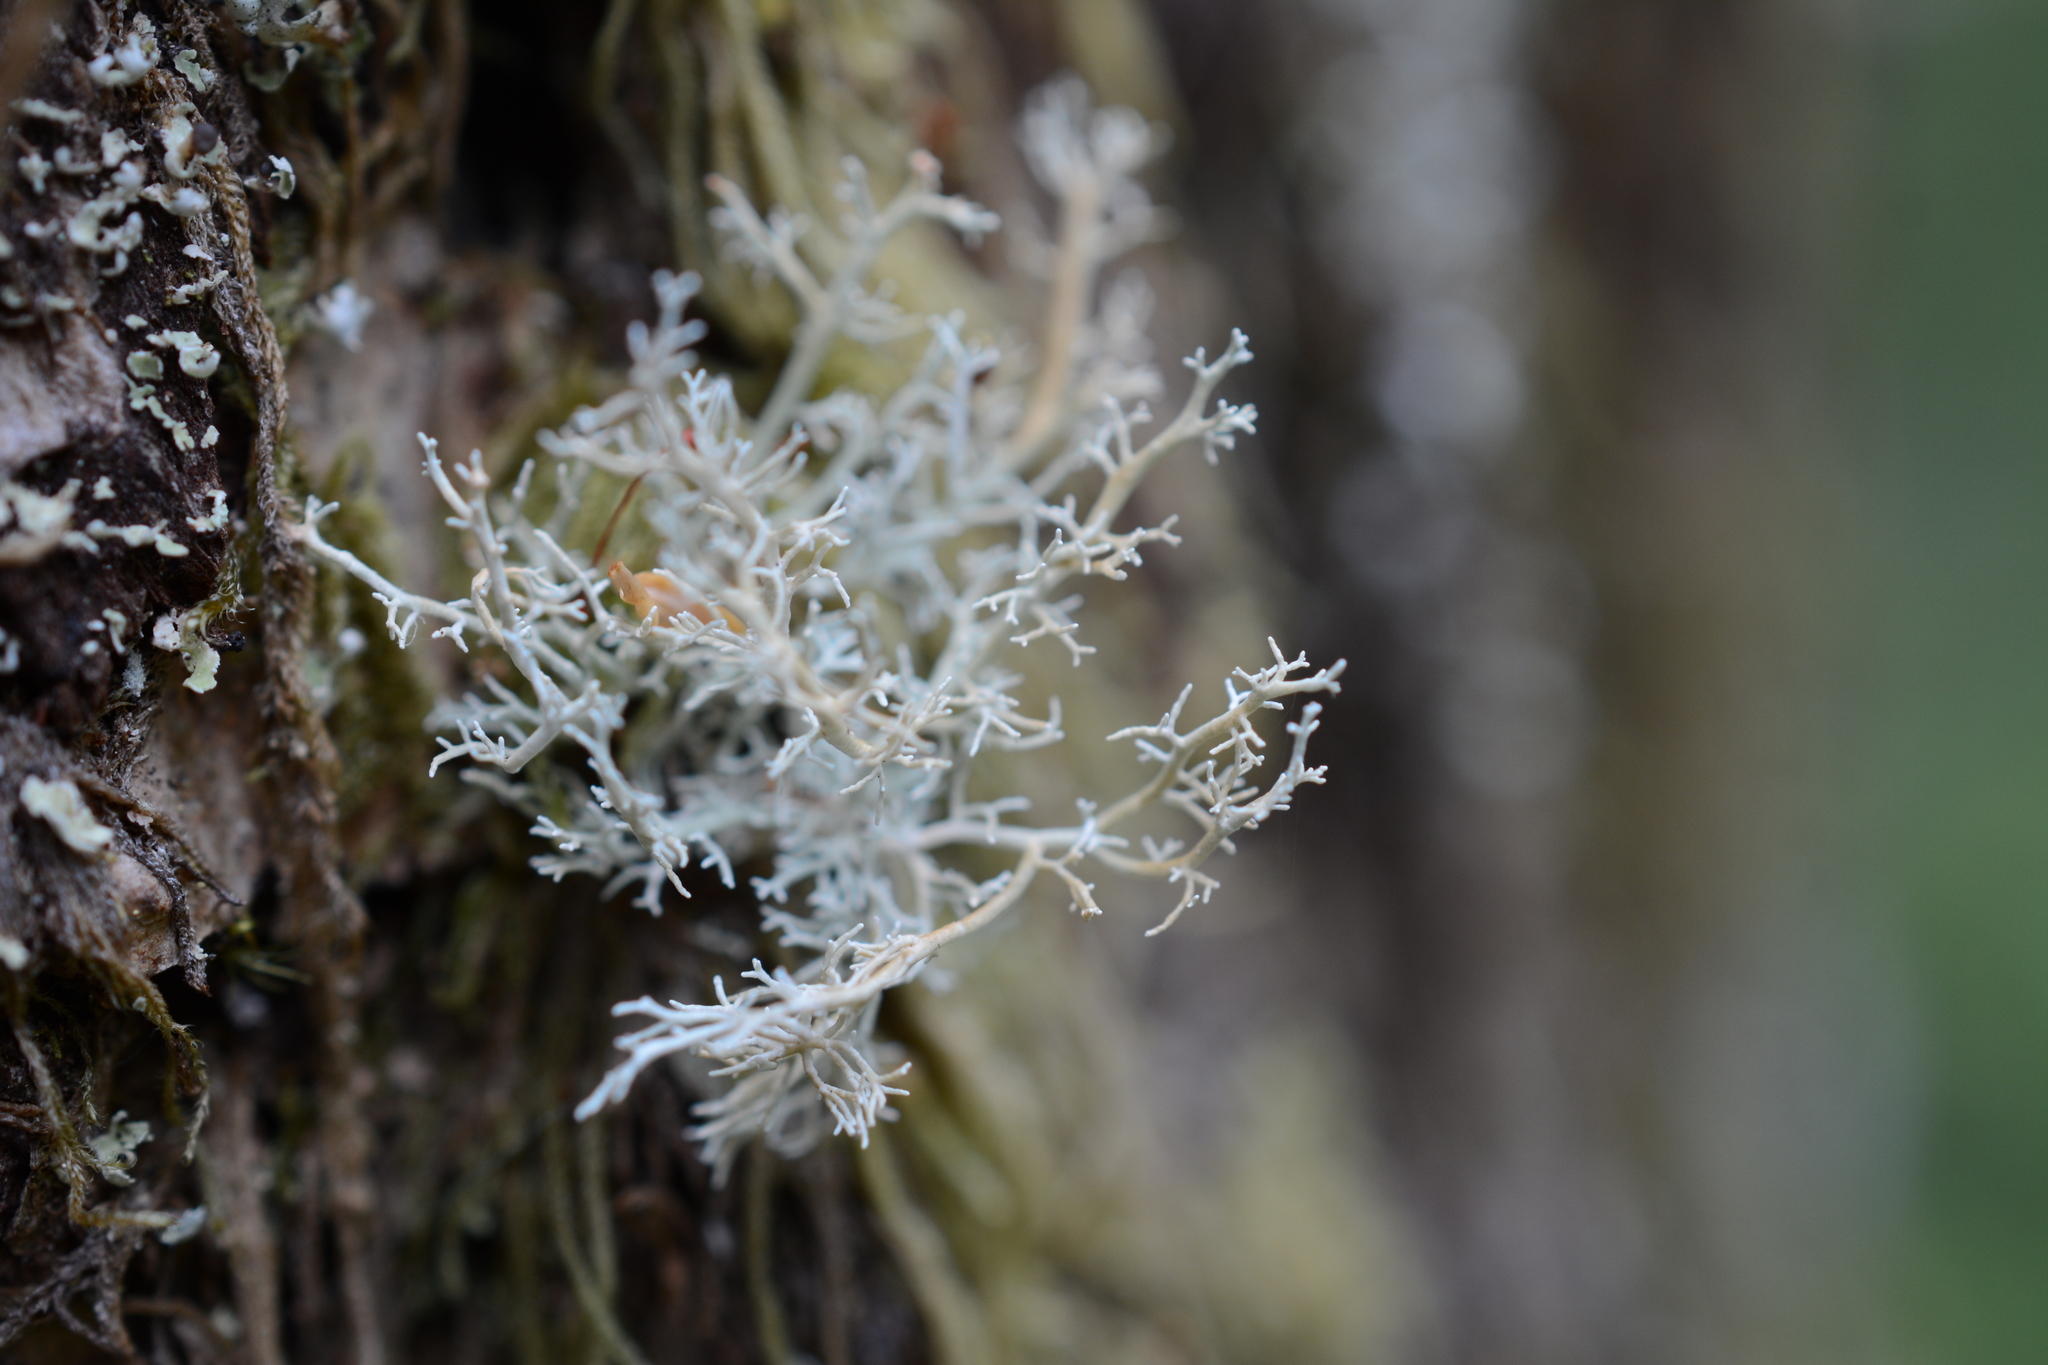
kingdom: Fungi
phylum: Ascomycota
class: Lecanoromycetes
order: Lecanorales
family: Sphaerophoraceae
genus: Sphaerophorus
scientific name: Sphaerophorus globosus
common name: Globe ball lichen
